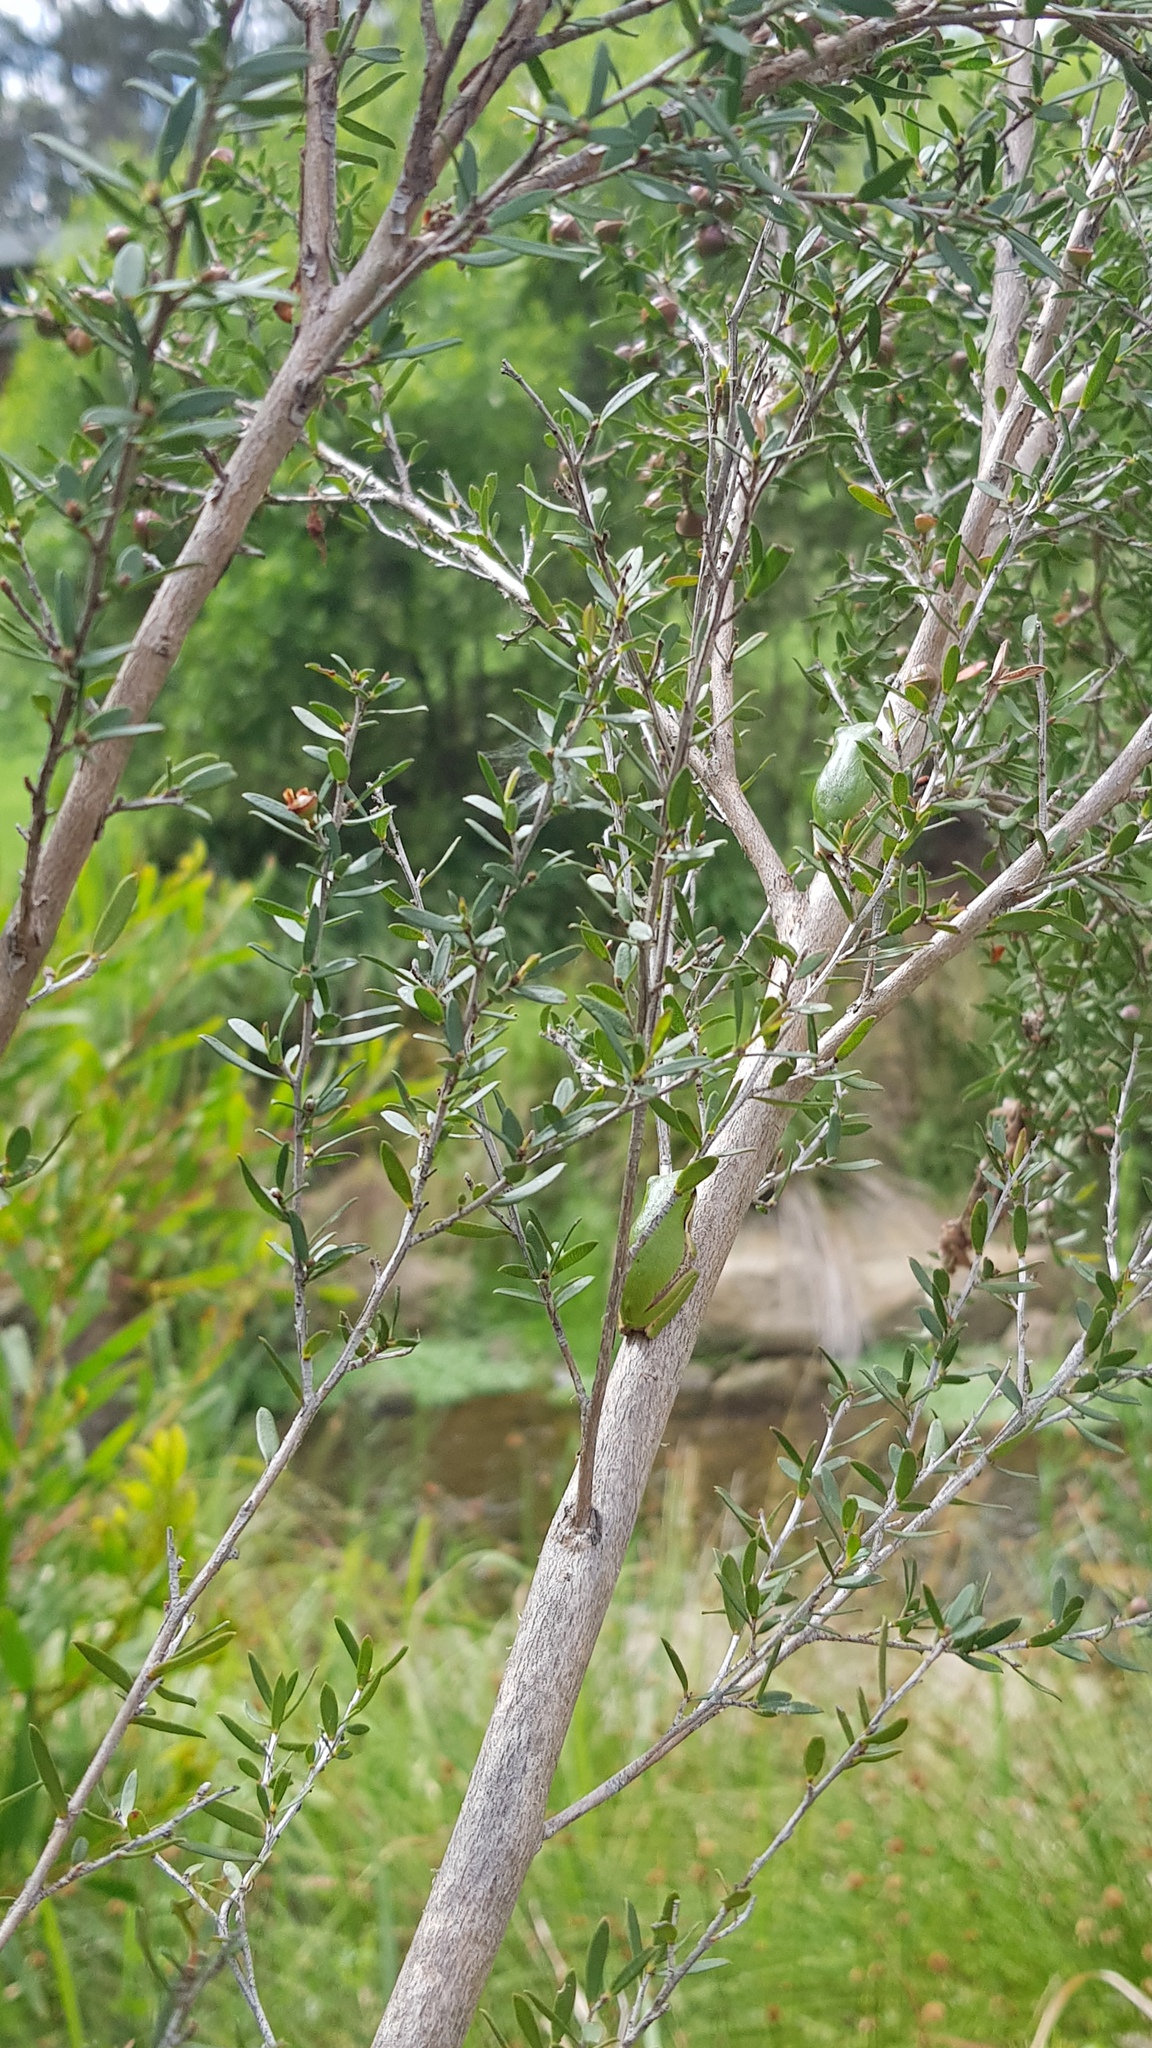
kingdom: Animalia
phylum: Chordata
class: Amphibia
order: Anura
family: Pelodryadidae
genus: Litoria
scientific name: Litoria fallax
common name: Eastern dwarf treefrog
